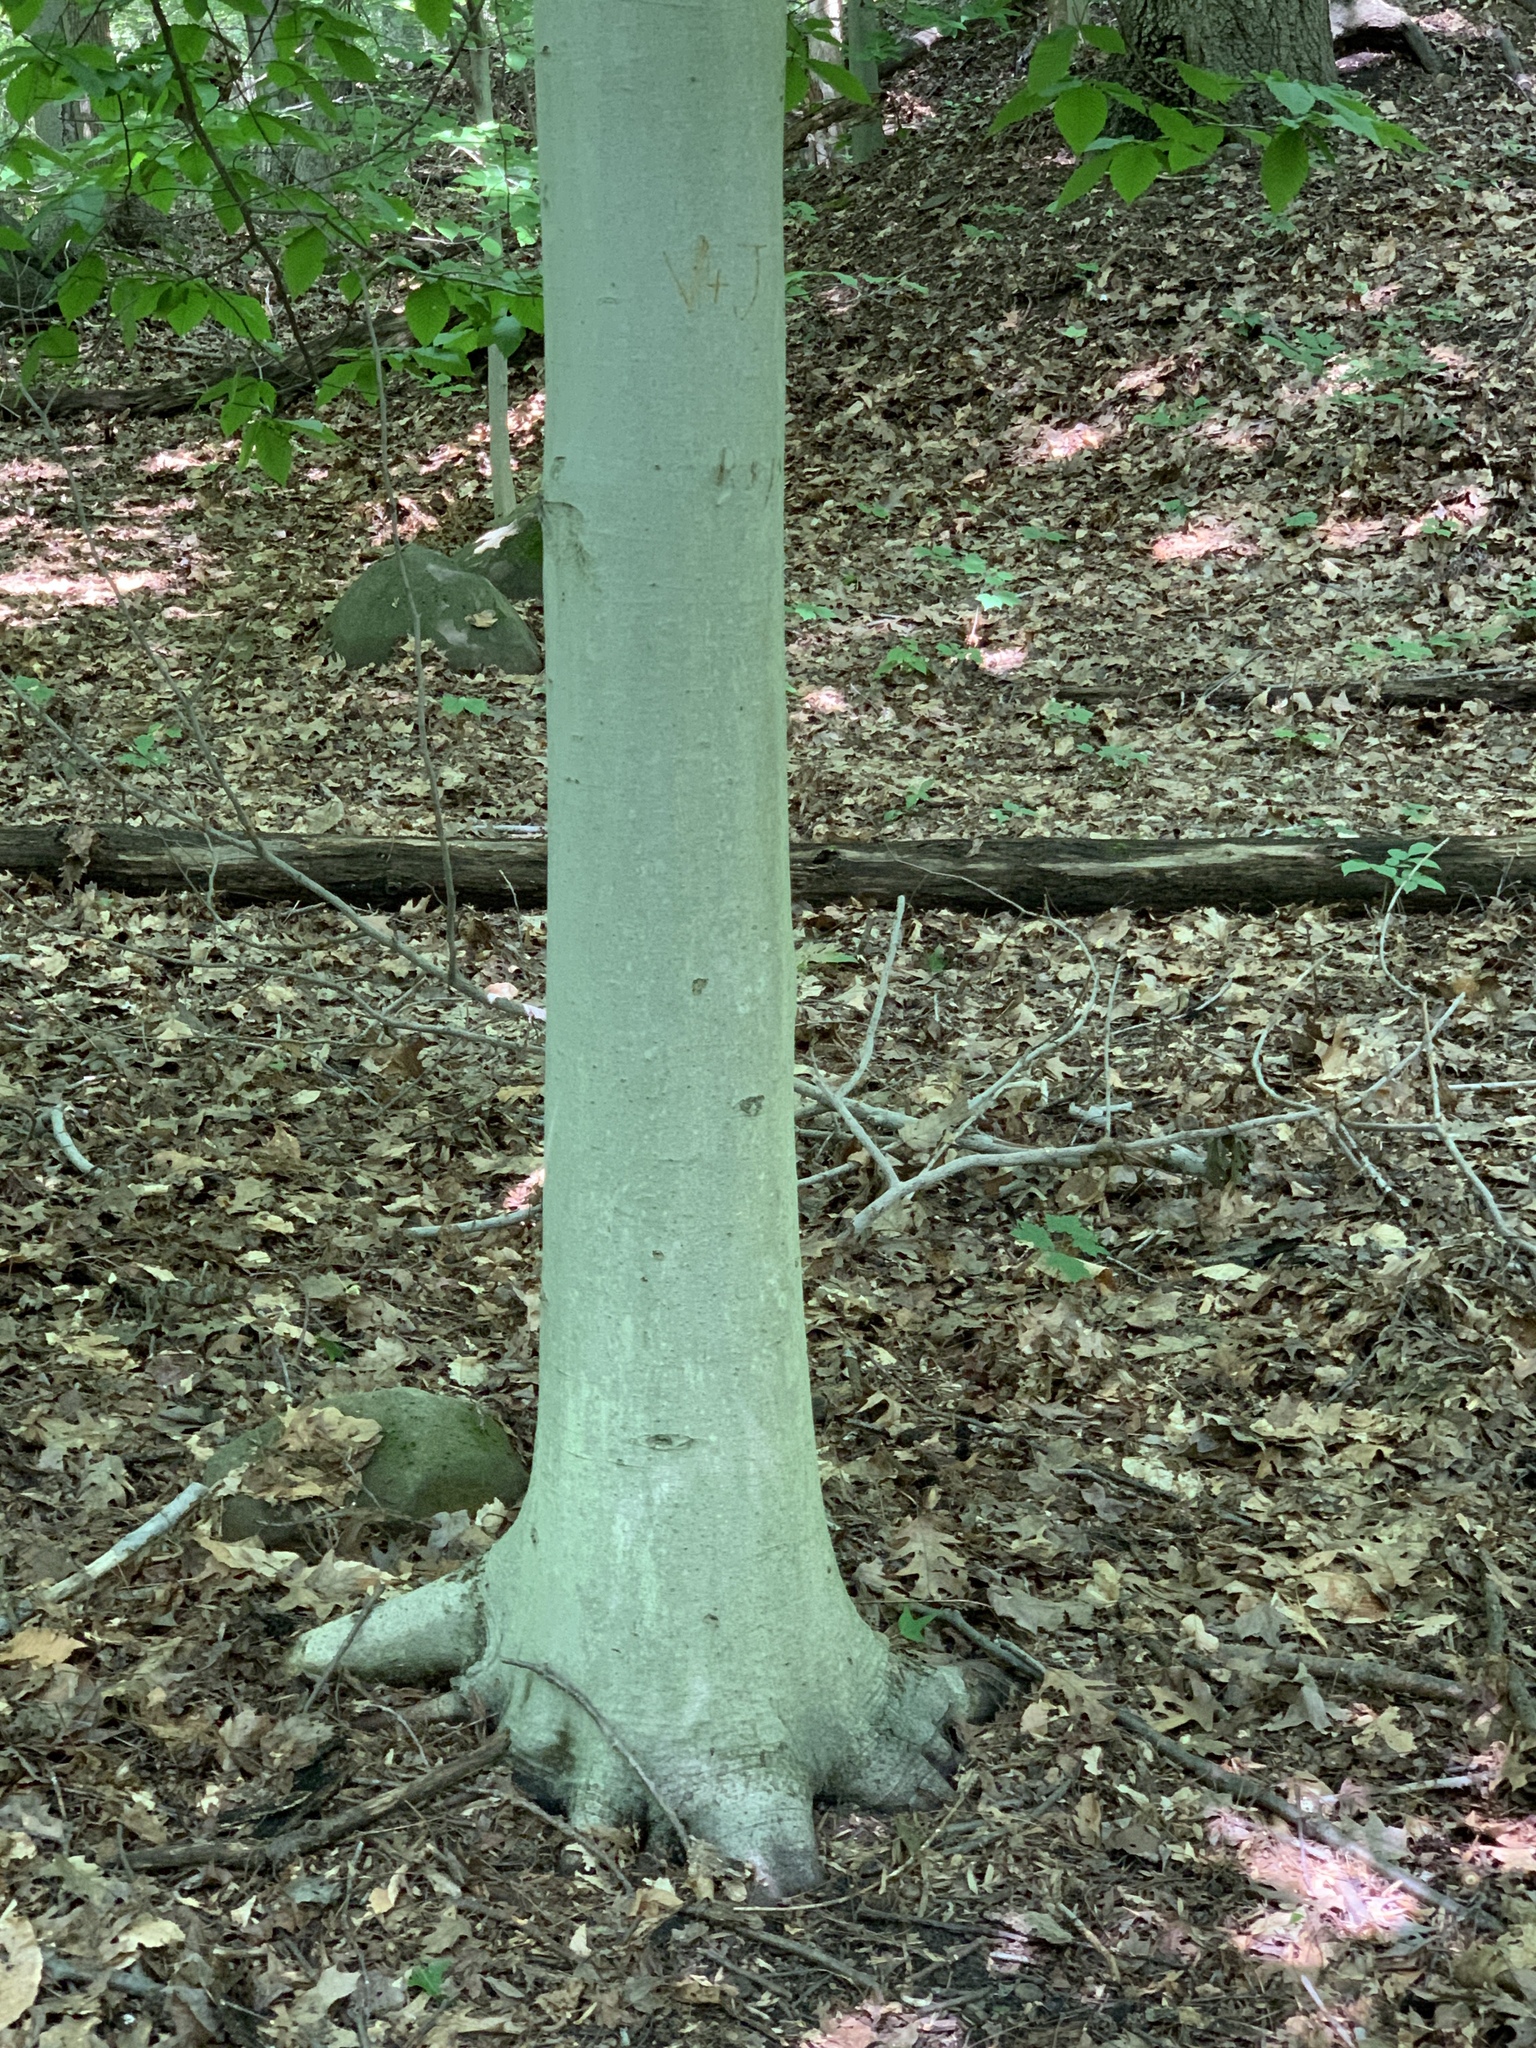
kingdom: Plantae
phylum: Tracheophyta
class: Magnoliopsida
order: Fagales
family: Fagaceae
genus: Fagus
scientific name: Fagus grandifolia
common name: American beech
